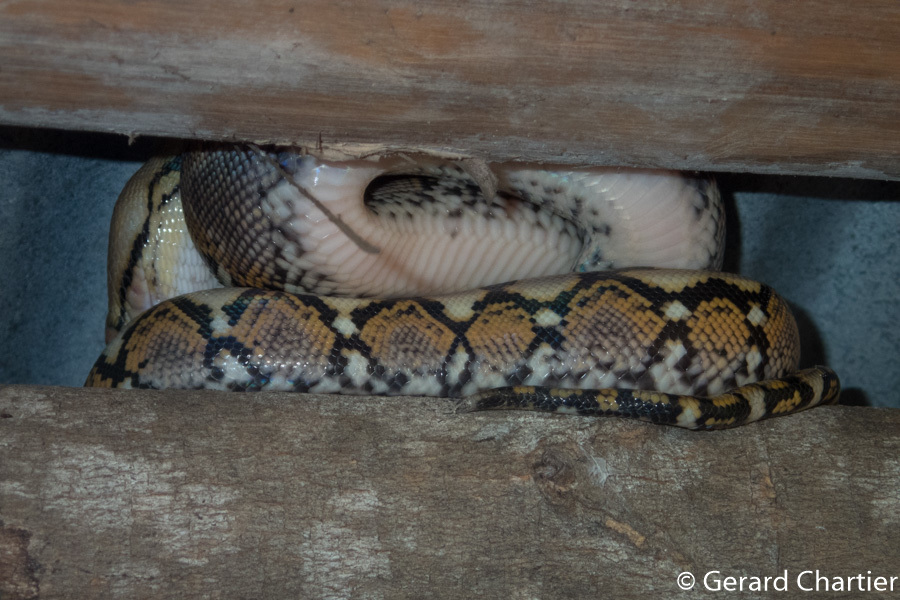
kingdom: Animalia
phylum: Chordata
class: Squamata
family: Pythonidae
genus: Malayopython
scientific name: Malayopython reticulatus
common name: Reticulated python
